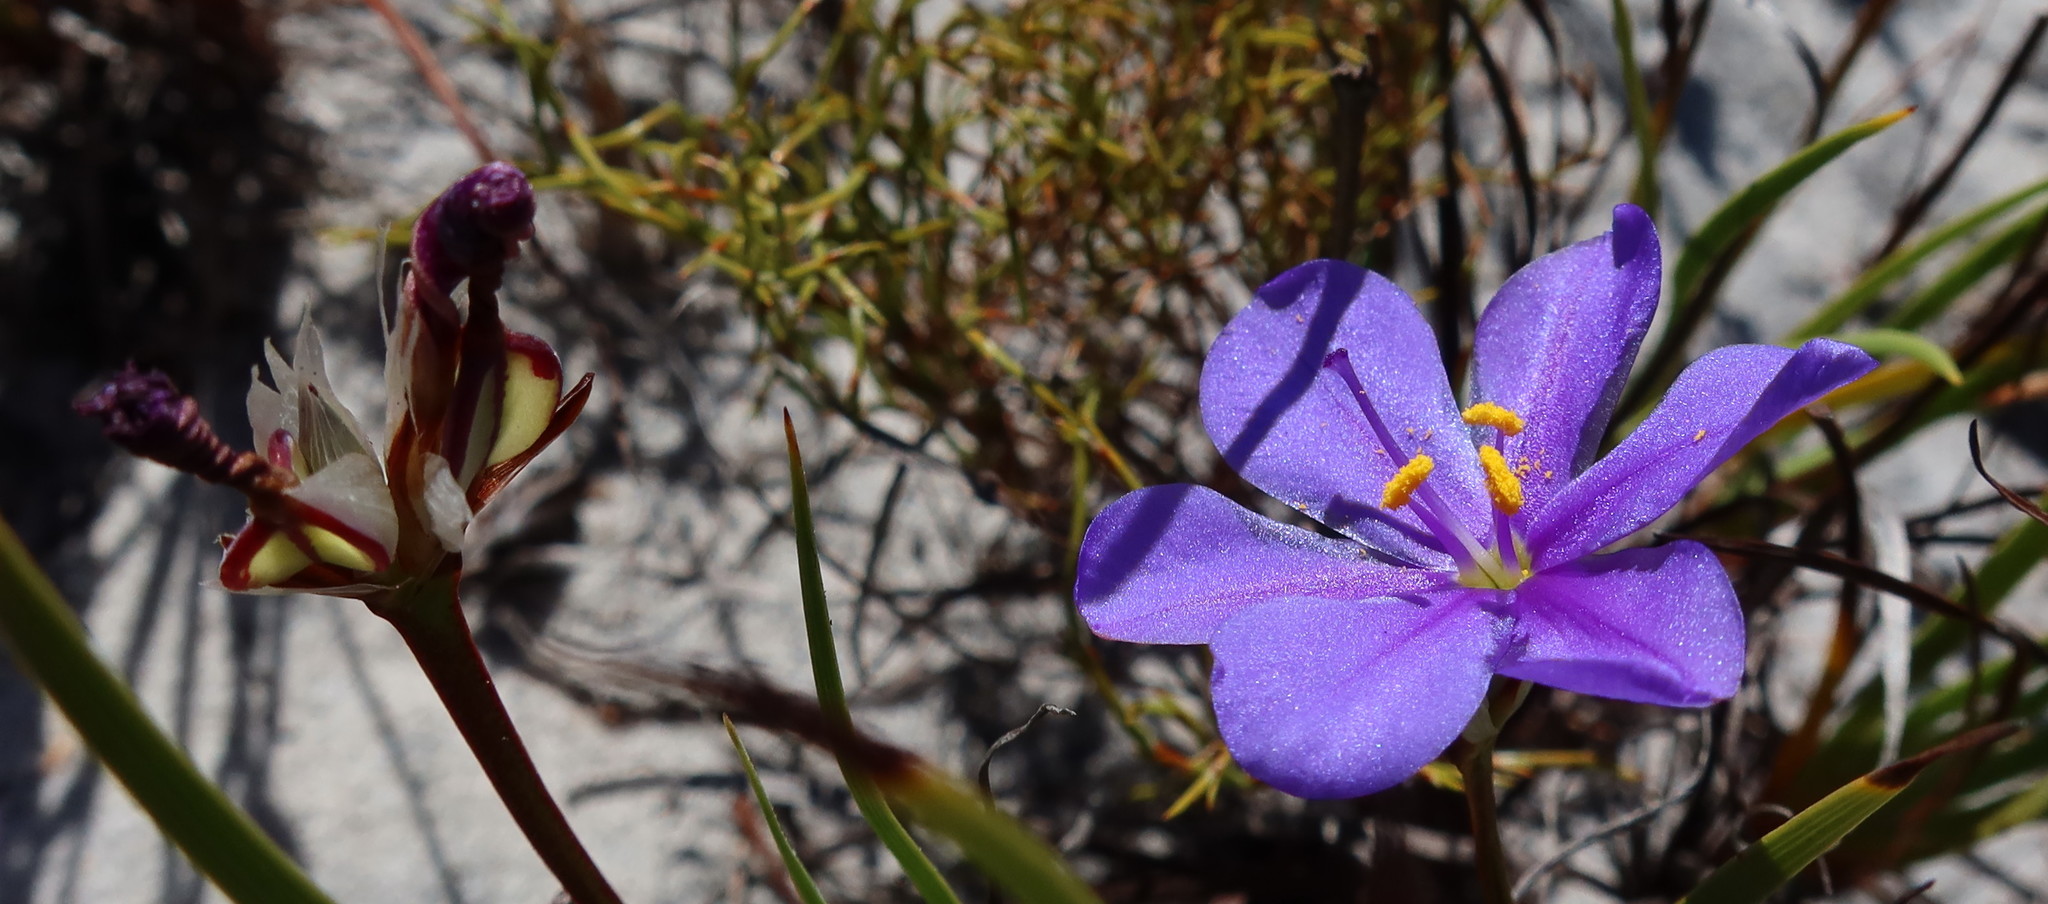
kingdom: Plantae
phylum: Tracheophyta
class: Liliopsida
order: Asparagales
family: Iridaceae
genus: Aristea
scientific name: Aristea glauca
